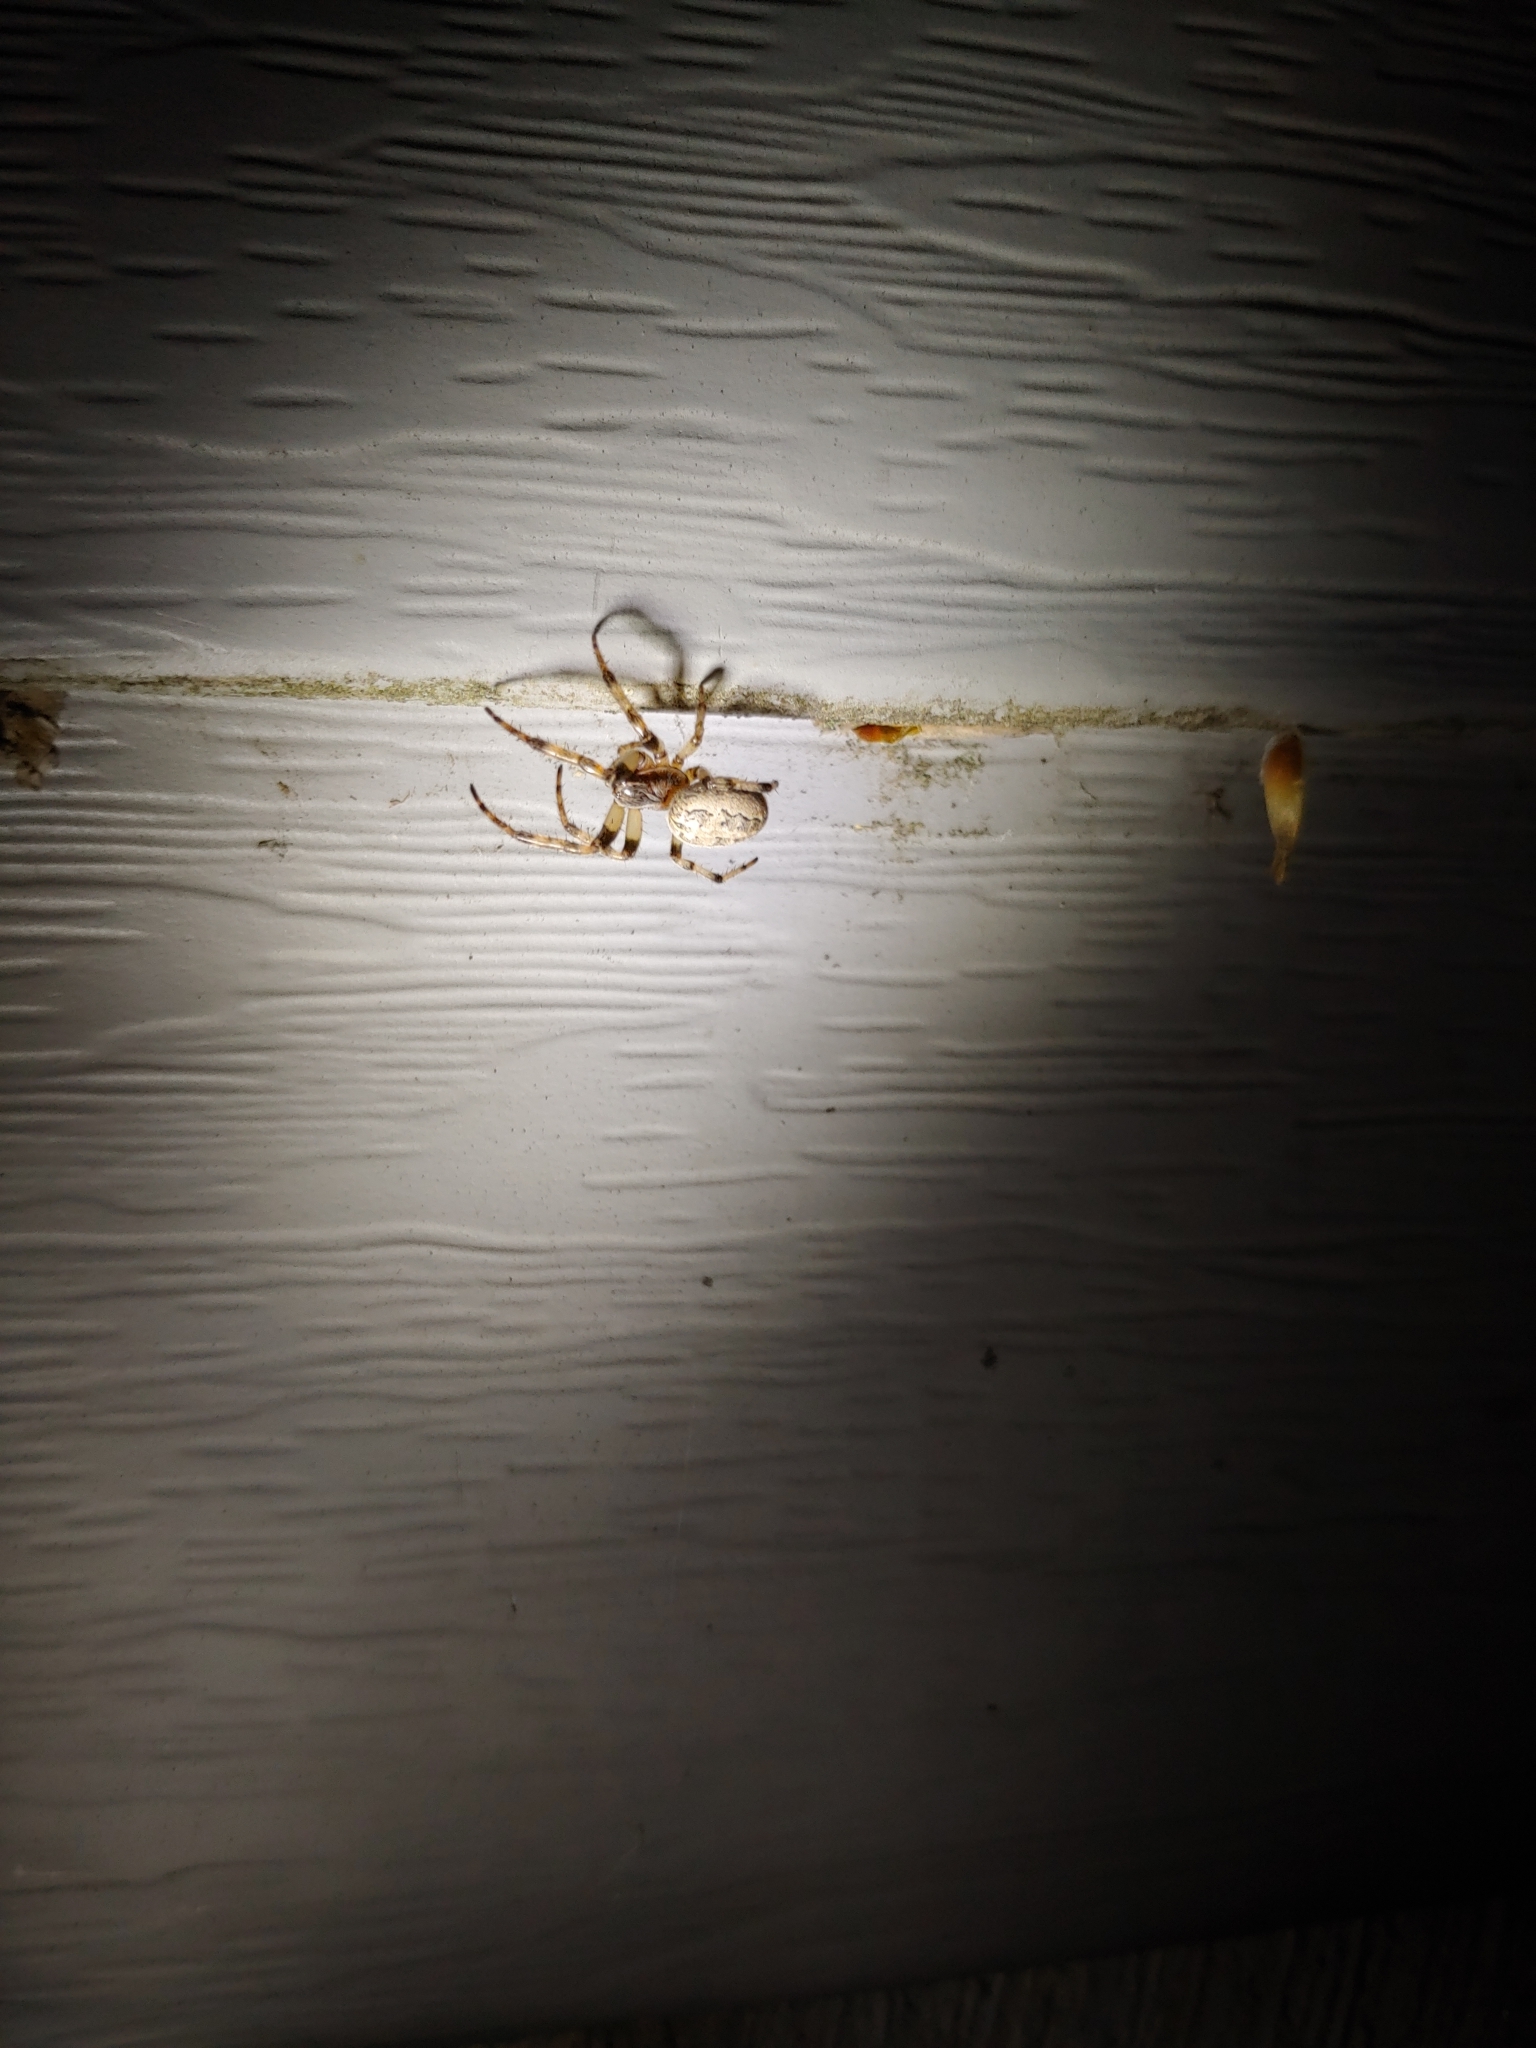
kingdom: Animalia
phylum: Arthropoda
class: Arachnida
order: Araneae
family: Araneidae
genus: Larinioides
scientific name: Larinioides cornutus
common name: Furrow orbweaver
